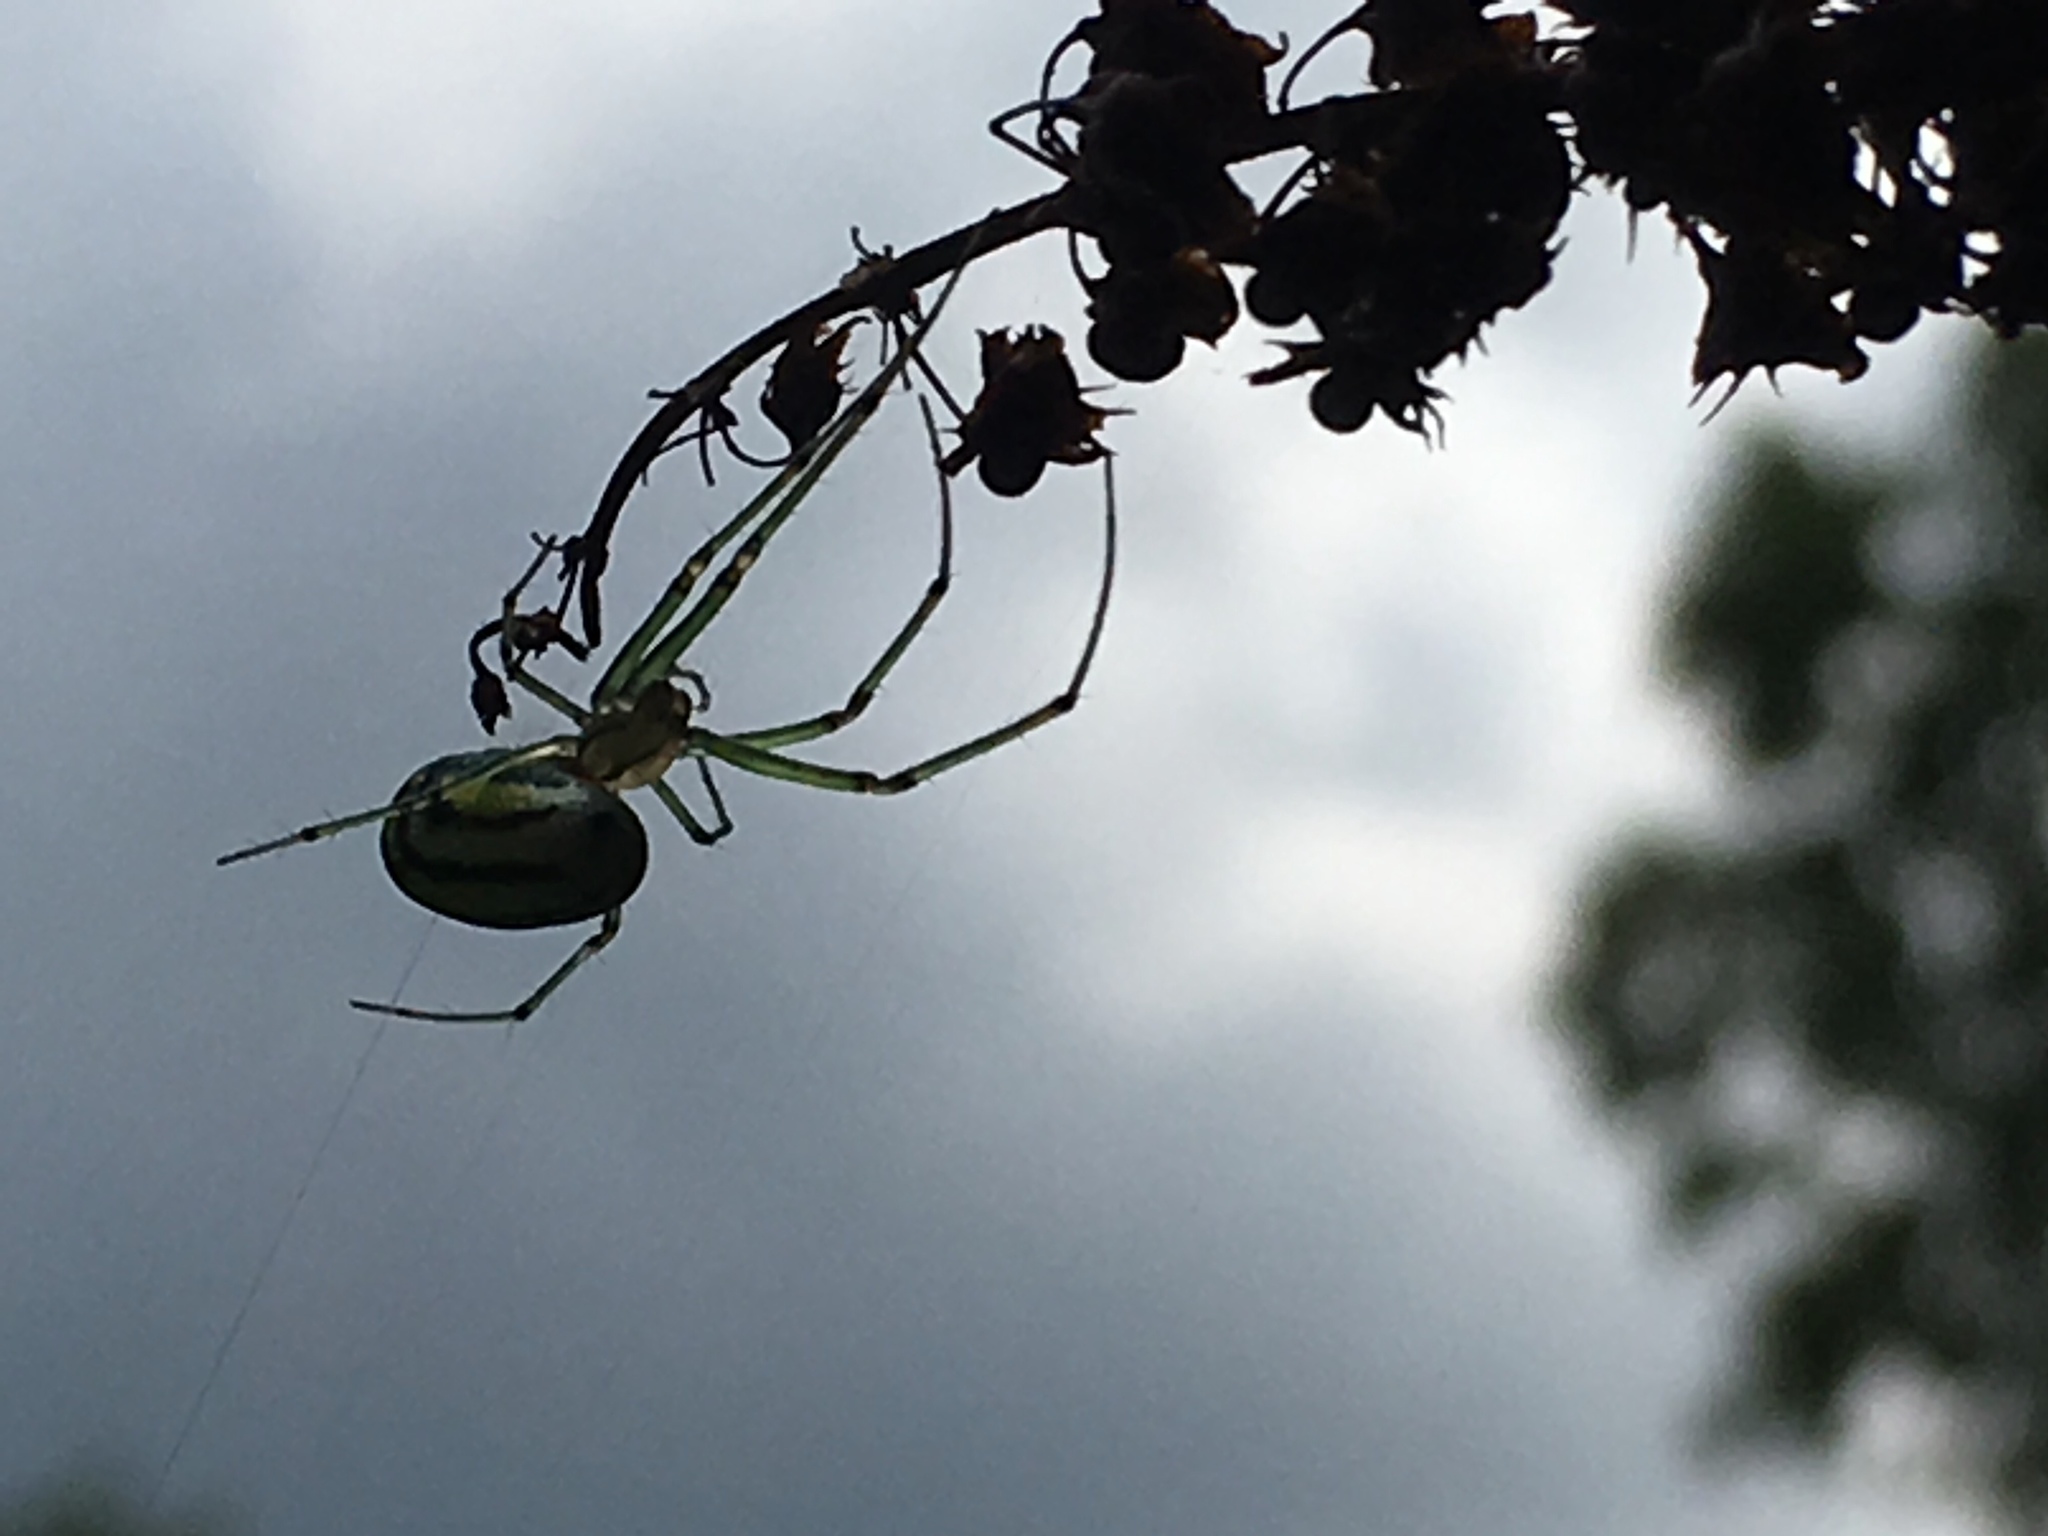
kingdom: Animalia
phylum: Arthropoda
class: Arachnida
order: Araneae
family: Tetragnathidae
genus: Leucauge
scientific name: Leucauge venusta
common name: Longjawed orb weavers
